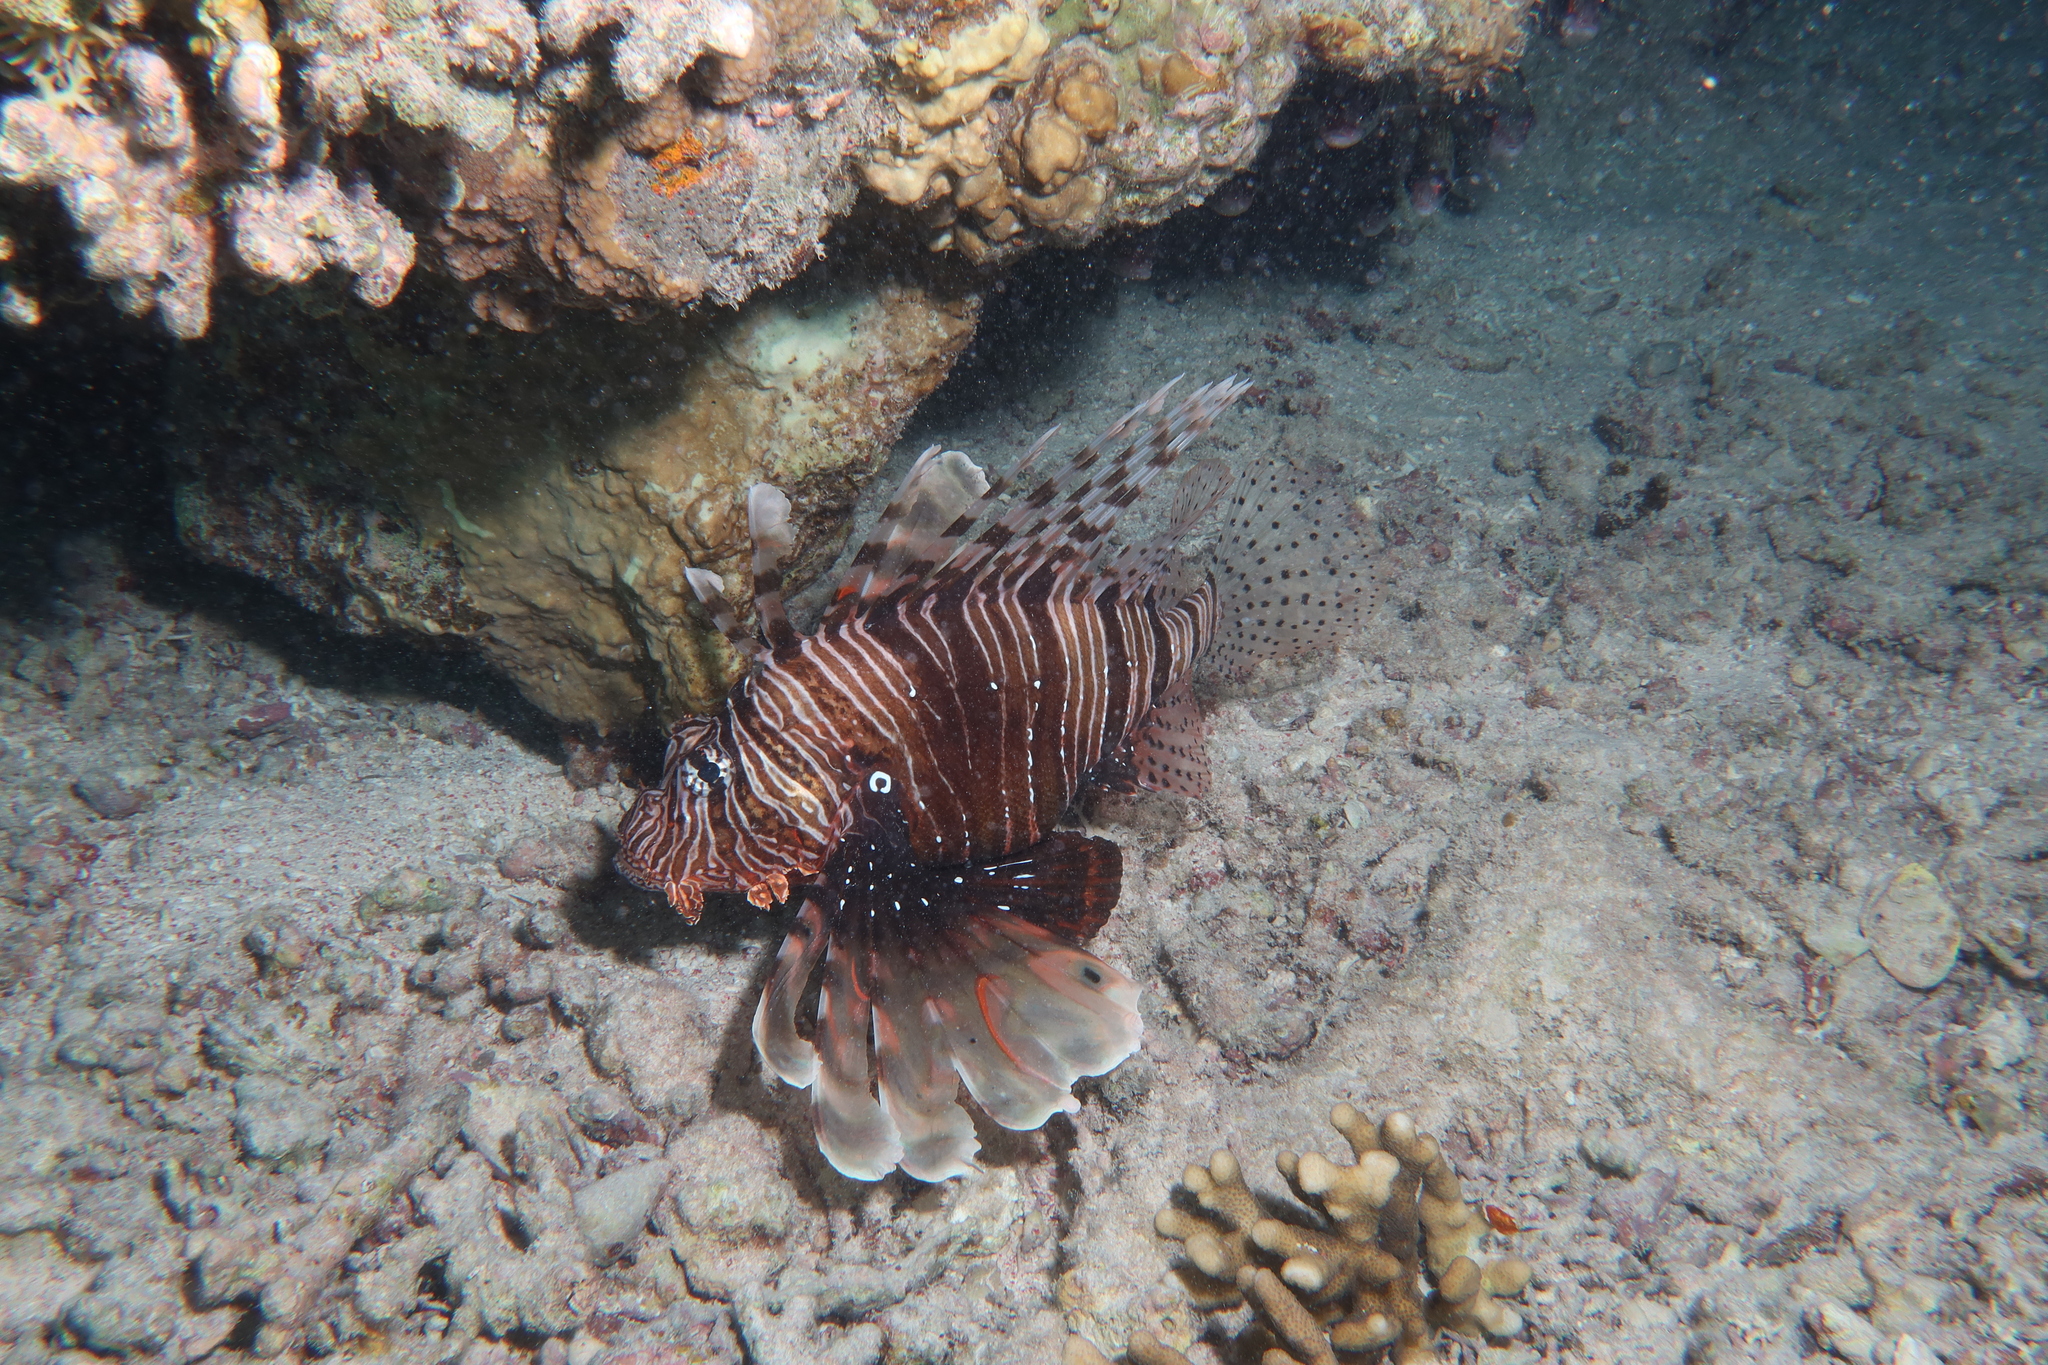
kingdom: Animalia
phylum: Chordata
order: Scorpaeniformes
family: Scorpaenidae
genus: Pterois
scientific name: Pterois miles
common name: Devil firefish
